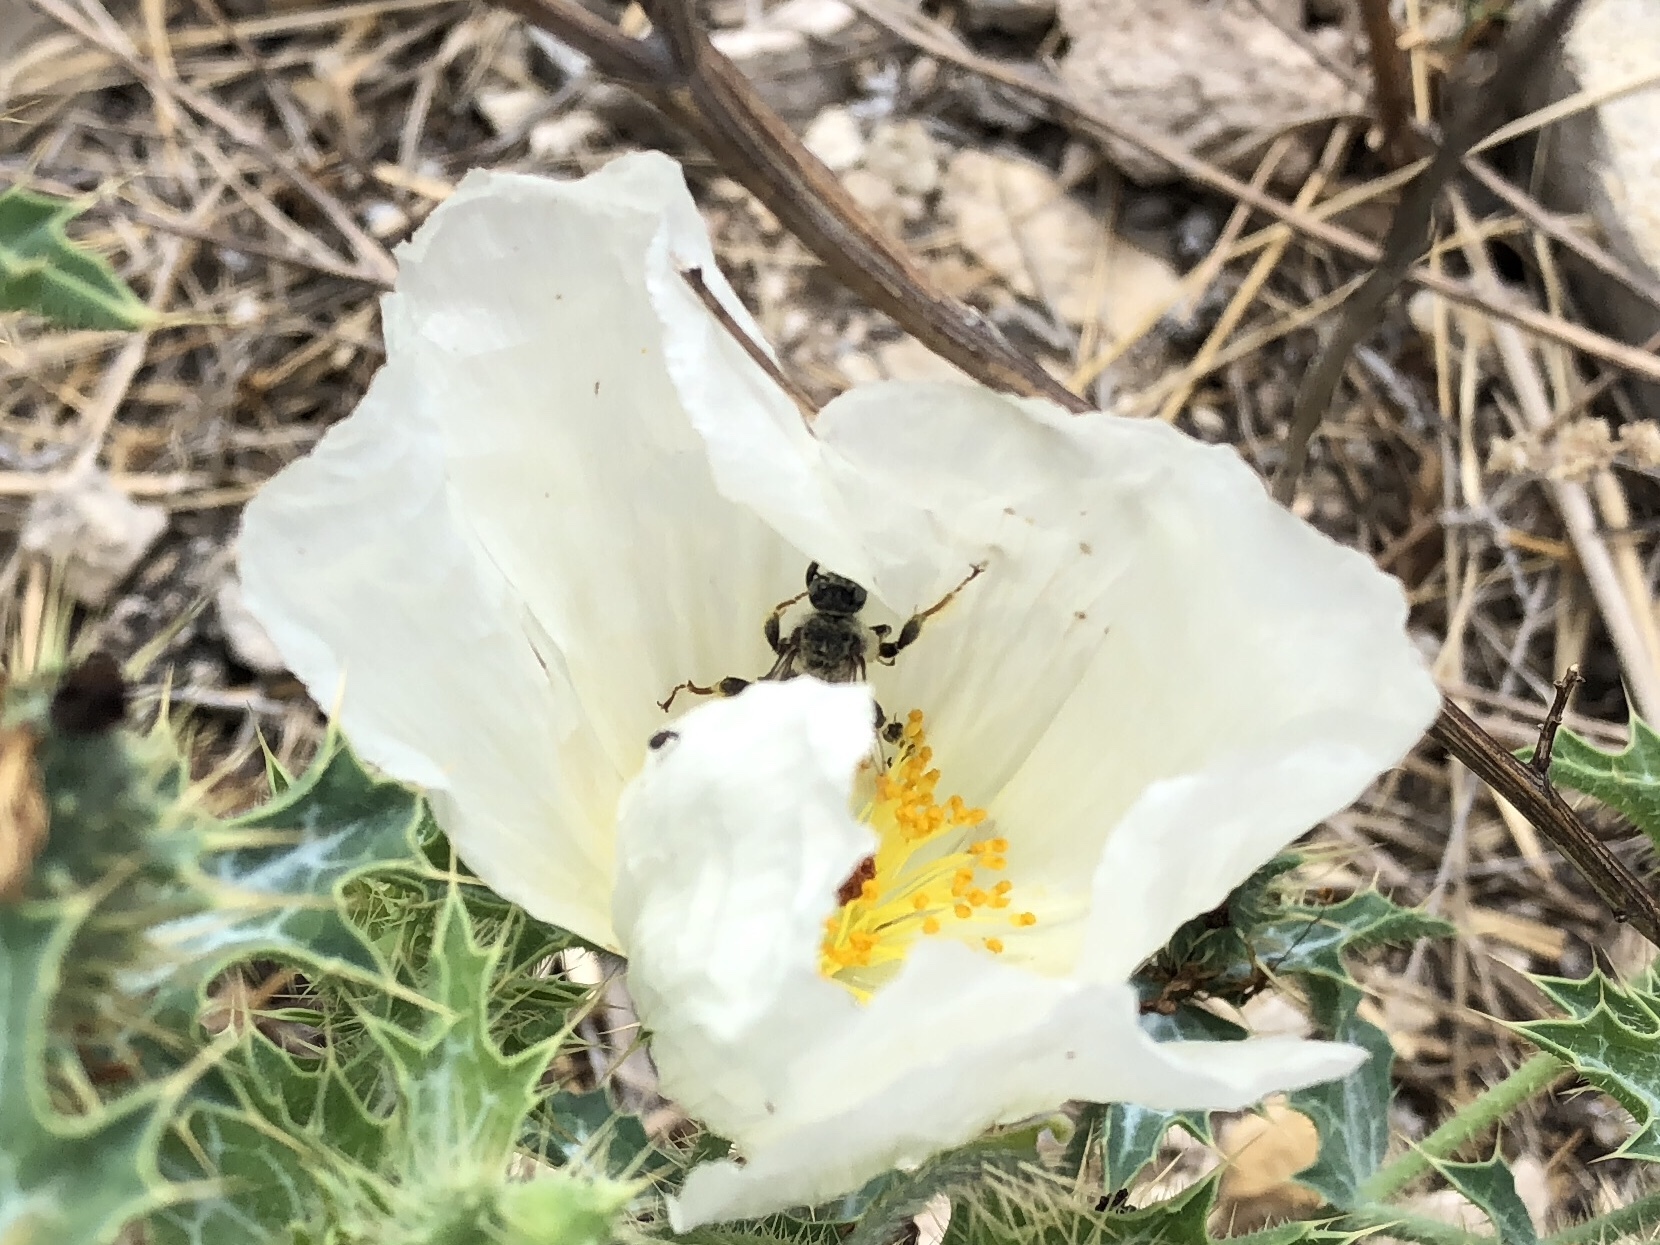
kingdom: Animalia
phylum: Arthropoda
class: Insecta
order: Hymenoptera
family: Apidae
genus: Diadasia
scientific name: Diadasia
